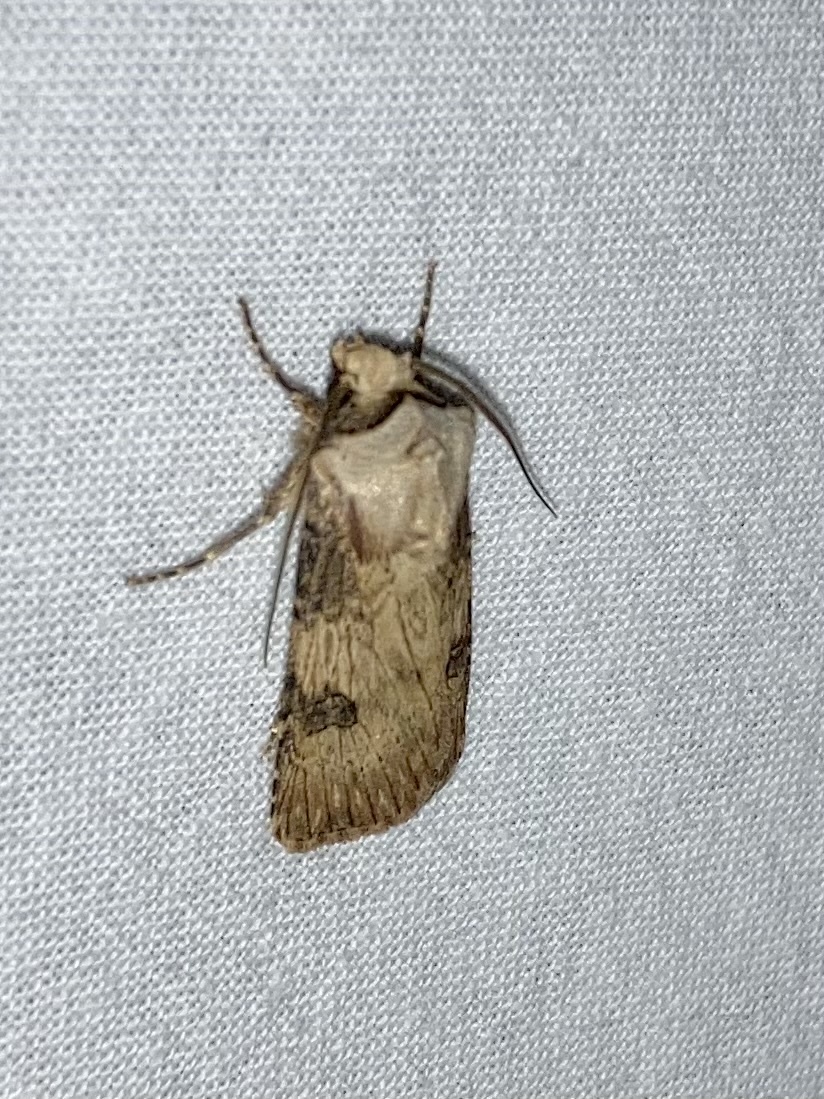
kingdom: Animalia
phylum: Arthropoda
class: Insecta
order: Lepidoptera
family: Noctuidae
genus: Agrotis
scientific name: Agrotis puta
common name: Shuttle-shaped dart
